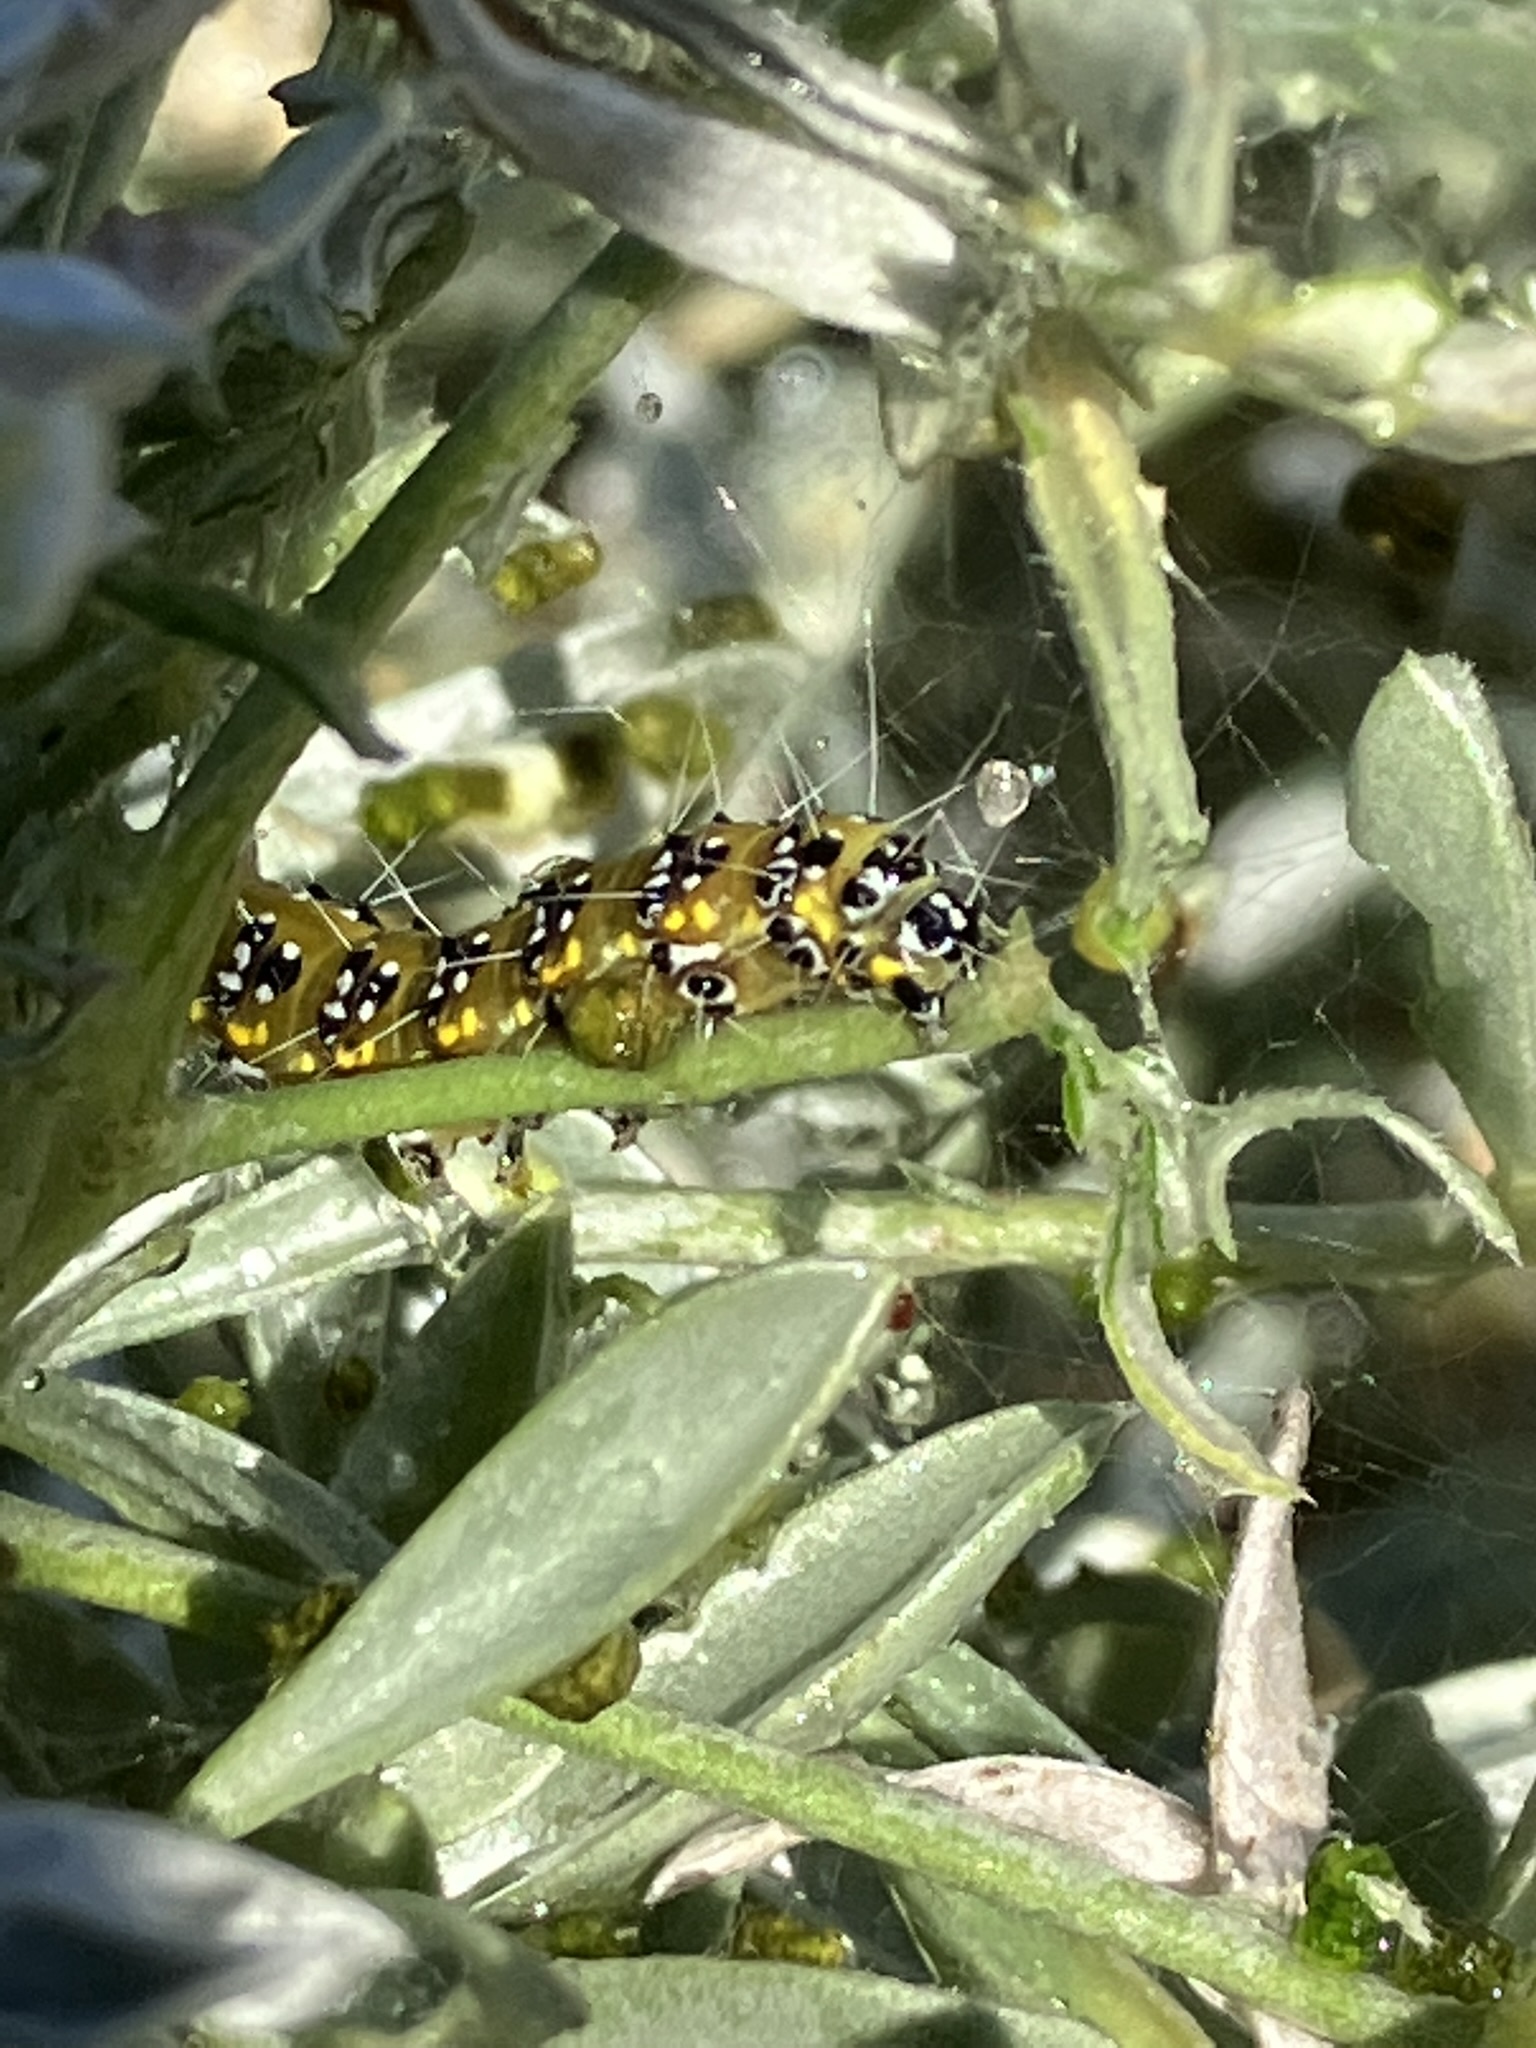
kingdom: Animalia
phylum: Arthropoda
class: Insecta
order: Lepidoptera
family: Crambidae
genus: Uresiphita
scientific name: Uresiphita reversalis
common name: Genista broom moth
